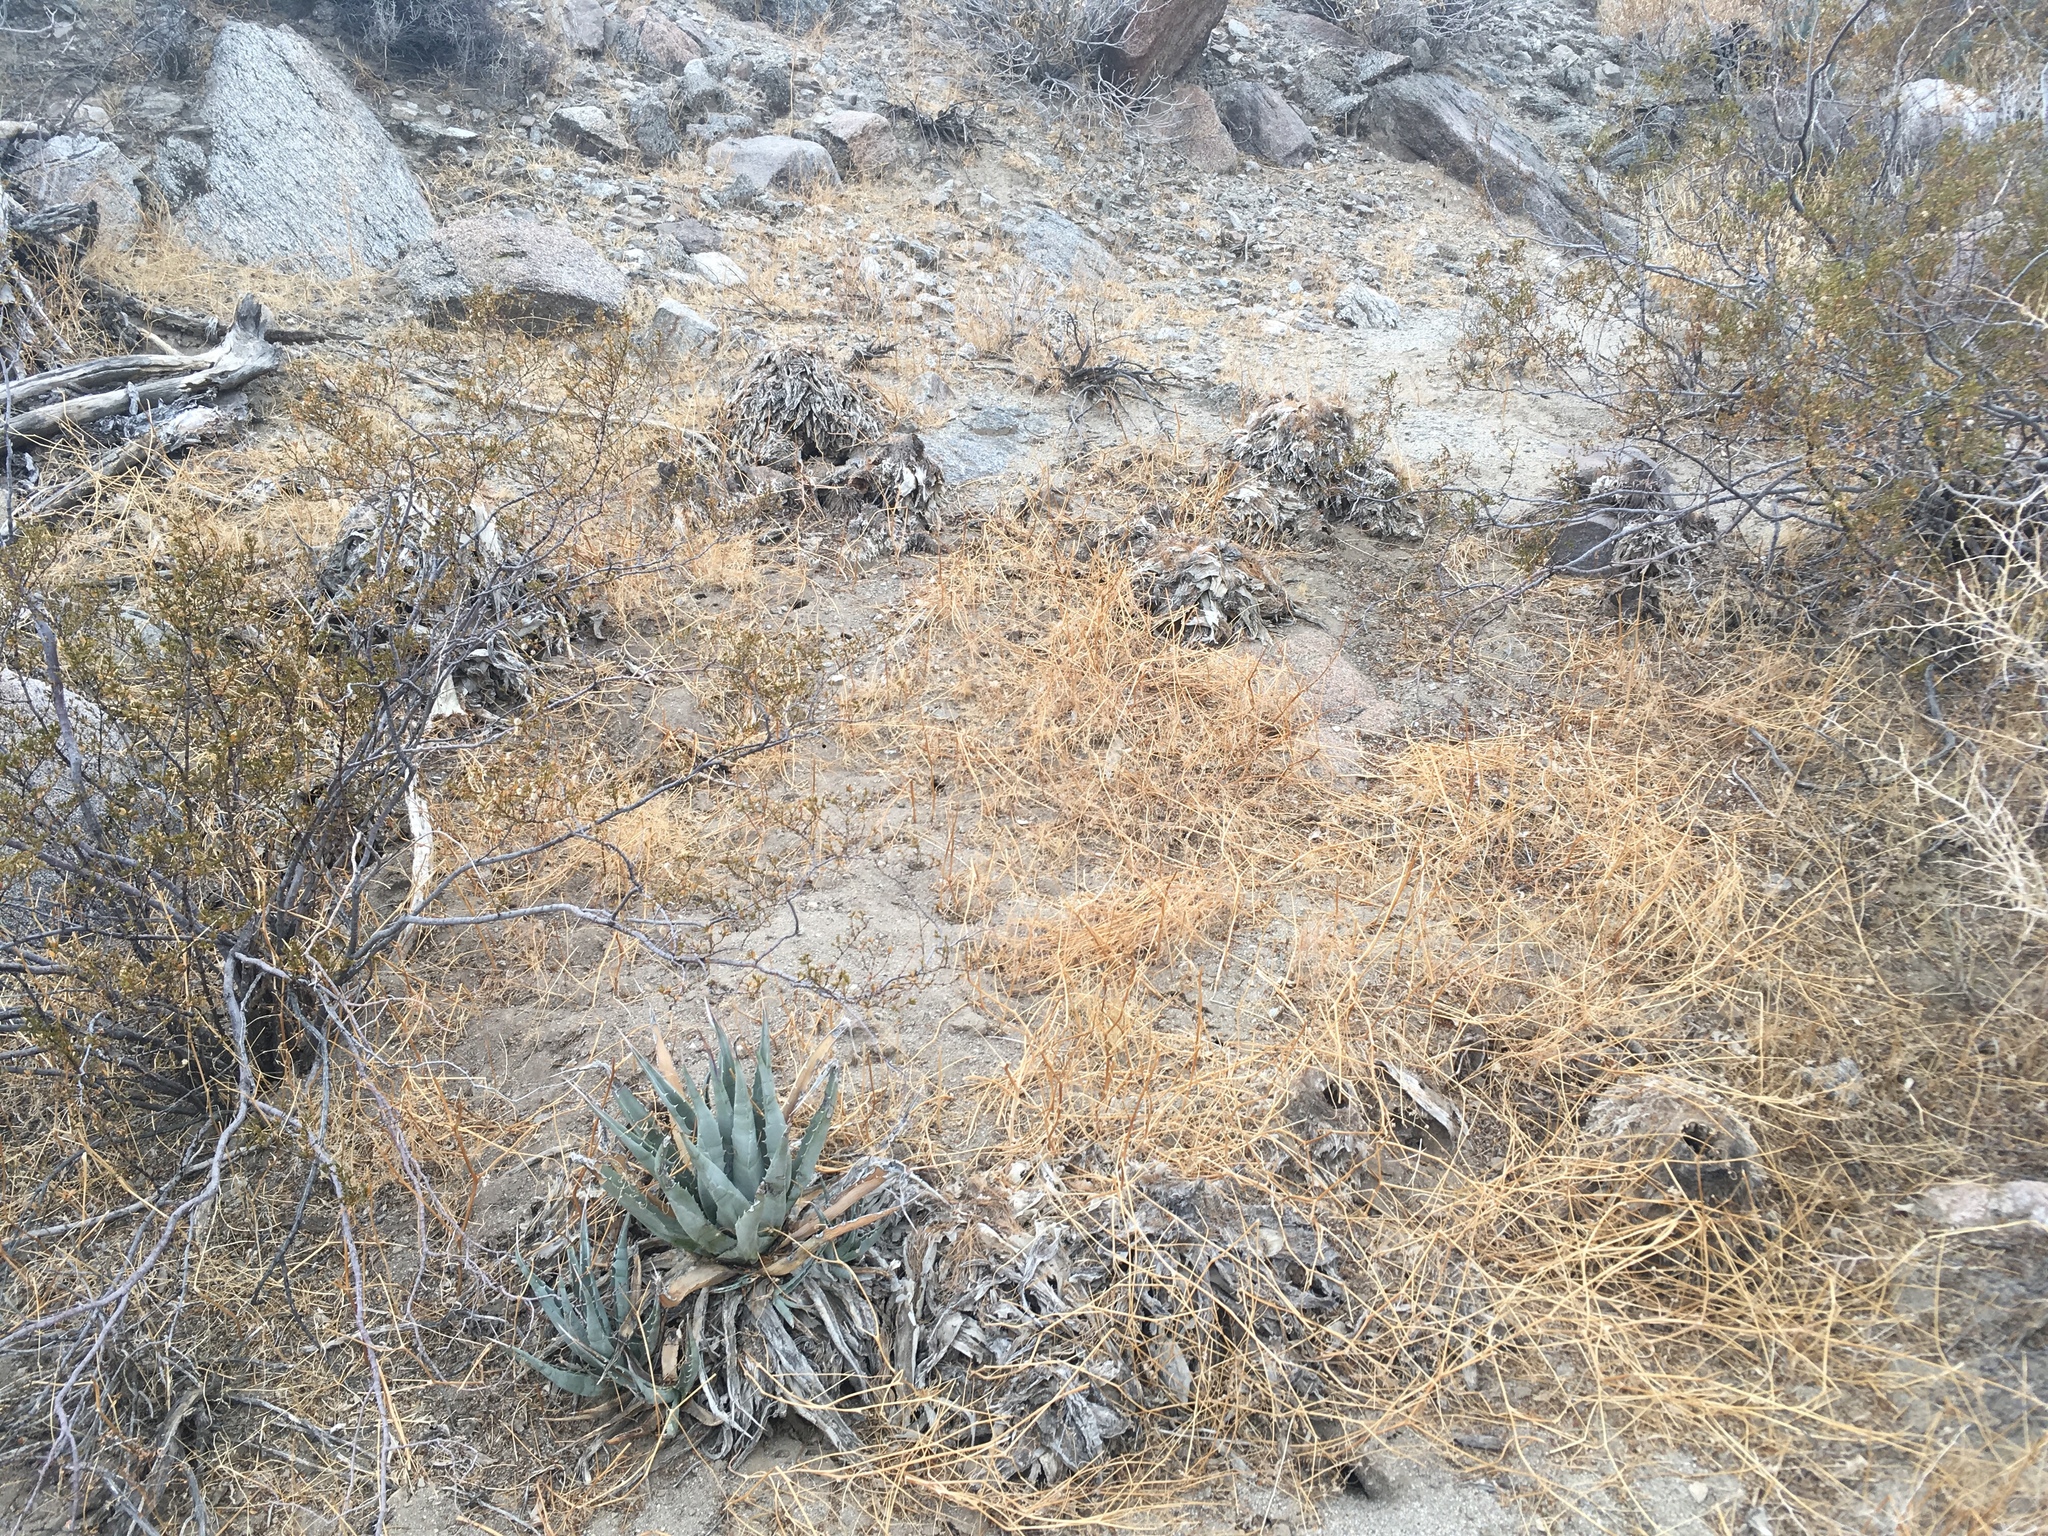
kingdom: Plantae
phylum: Tracheophyta
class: Liliopsida
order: Asparagales
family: Asparagaceae
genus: Agave
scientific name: Agave deserti
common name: Desert agave
